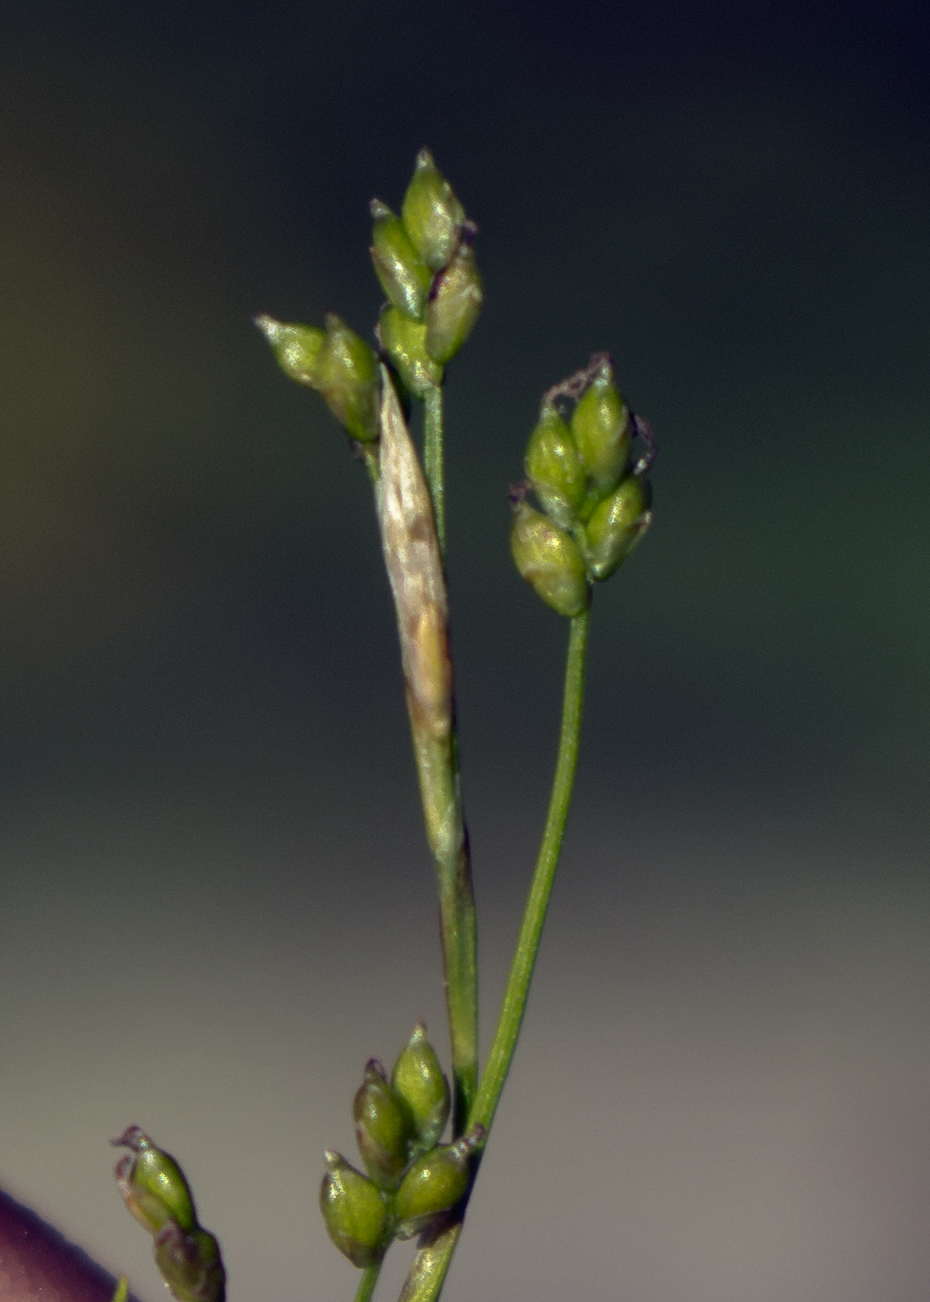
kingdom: Plantae
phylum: Tracheophyta
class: Liliopsida
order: Poales
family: Cyperaceae
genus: Carex
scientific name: Carex eburnea
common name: Bristle-leaved sedge
